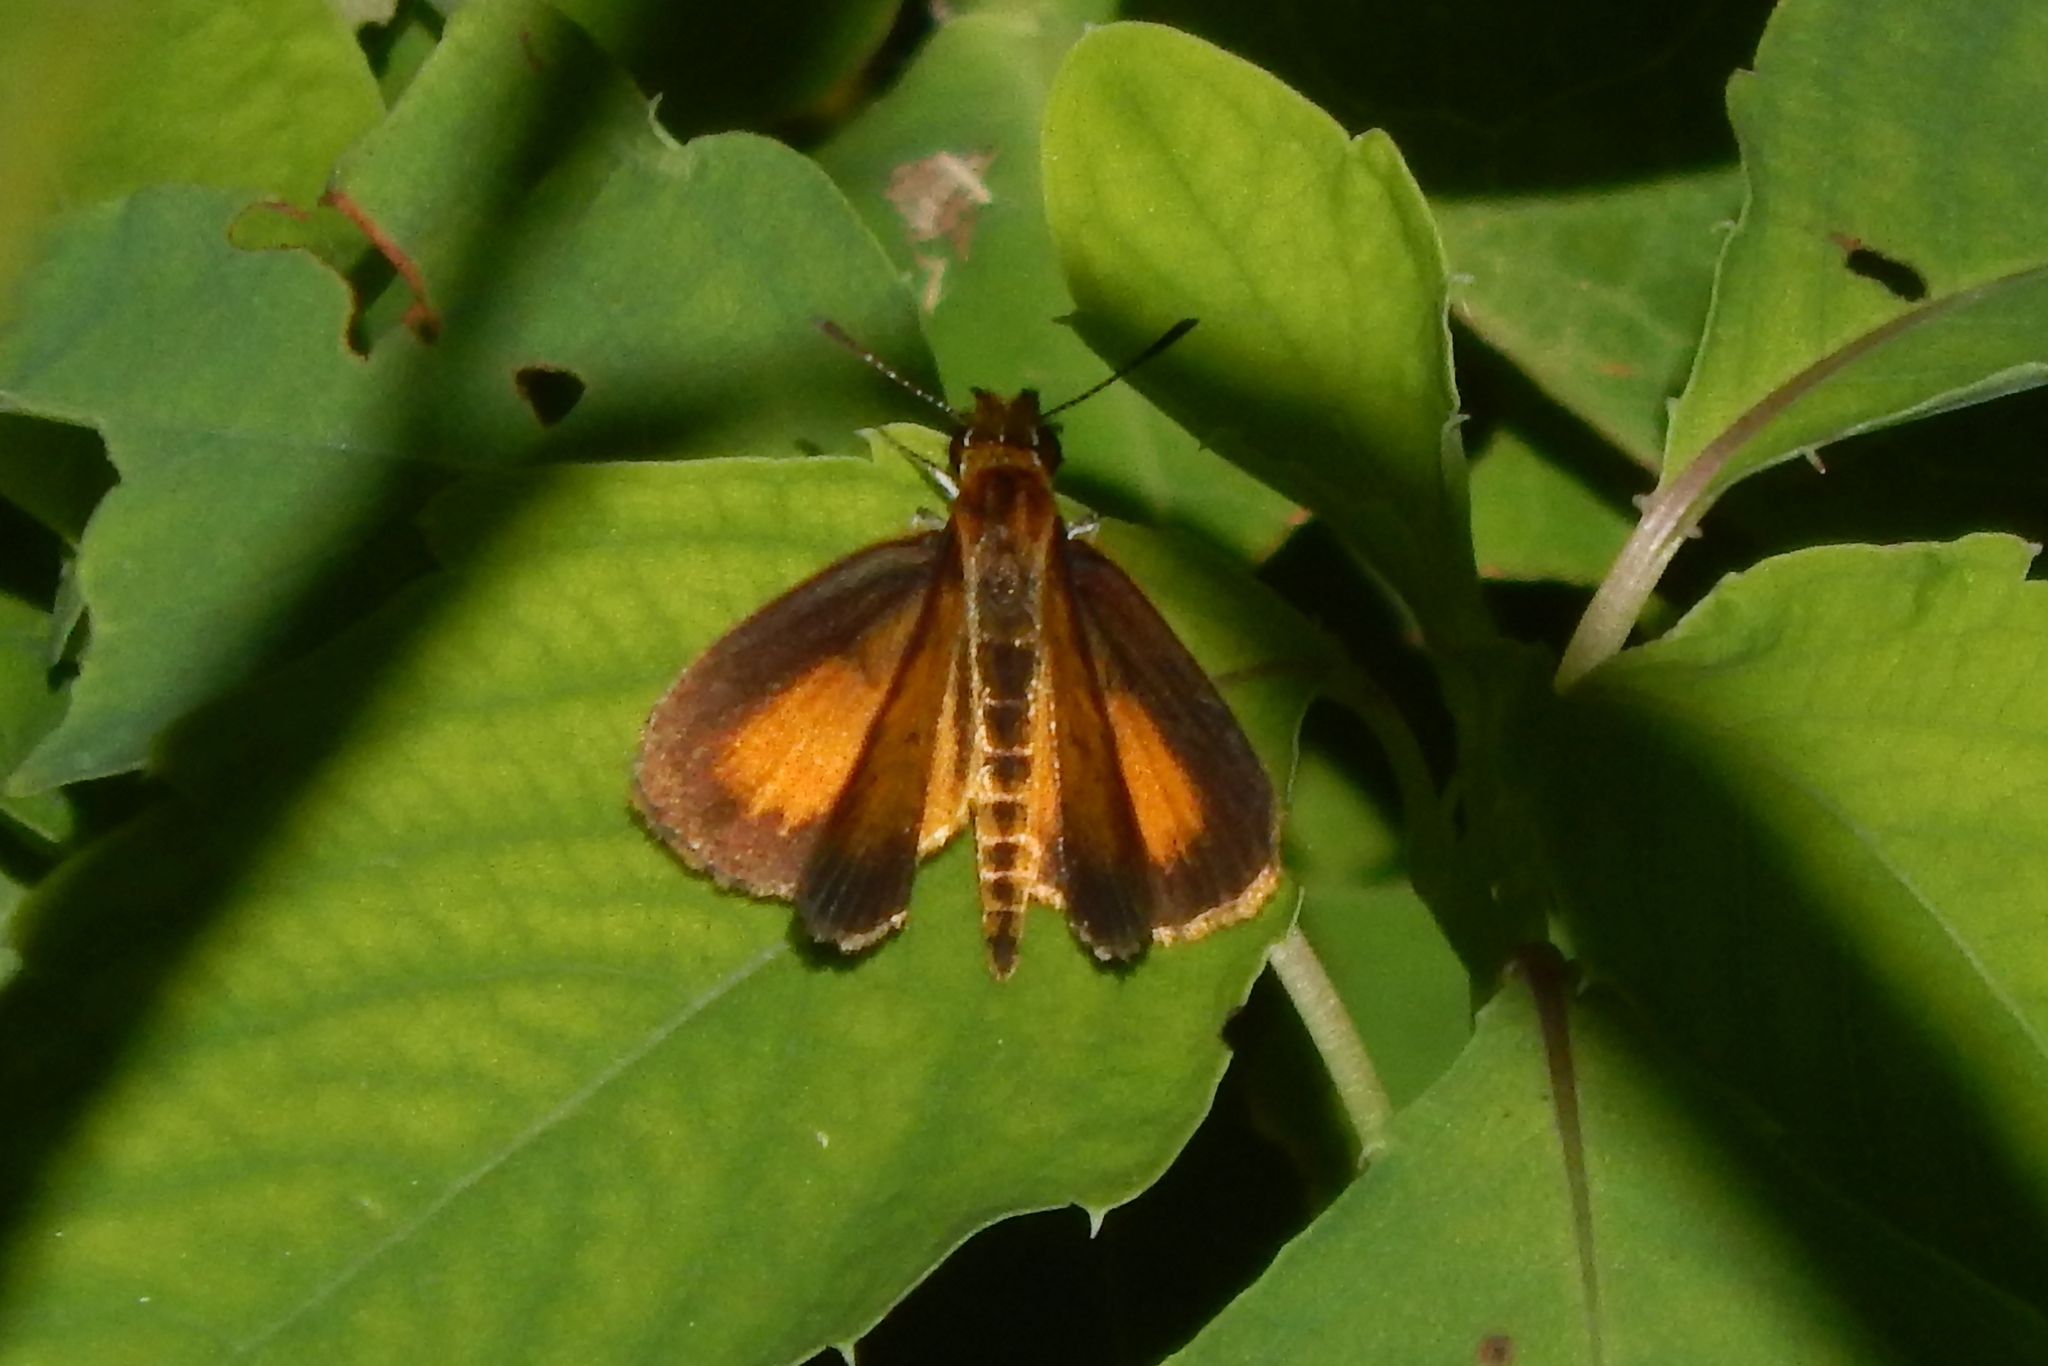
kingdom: Animalia
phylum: Arthropoda
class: Insecta
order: Lepidoptera
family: Hesperiidae
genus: Ancyloxypha
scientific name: Ancyloxypha numitor
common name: Least skipper
